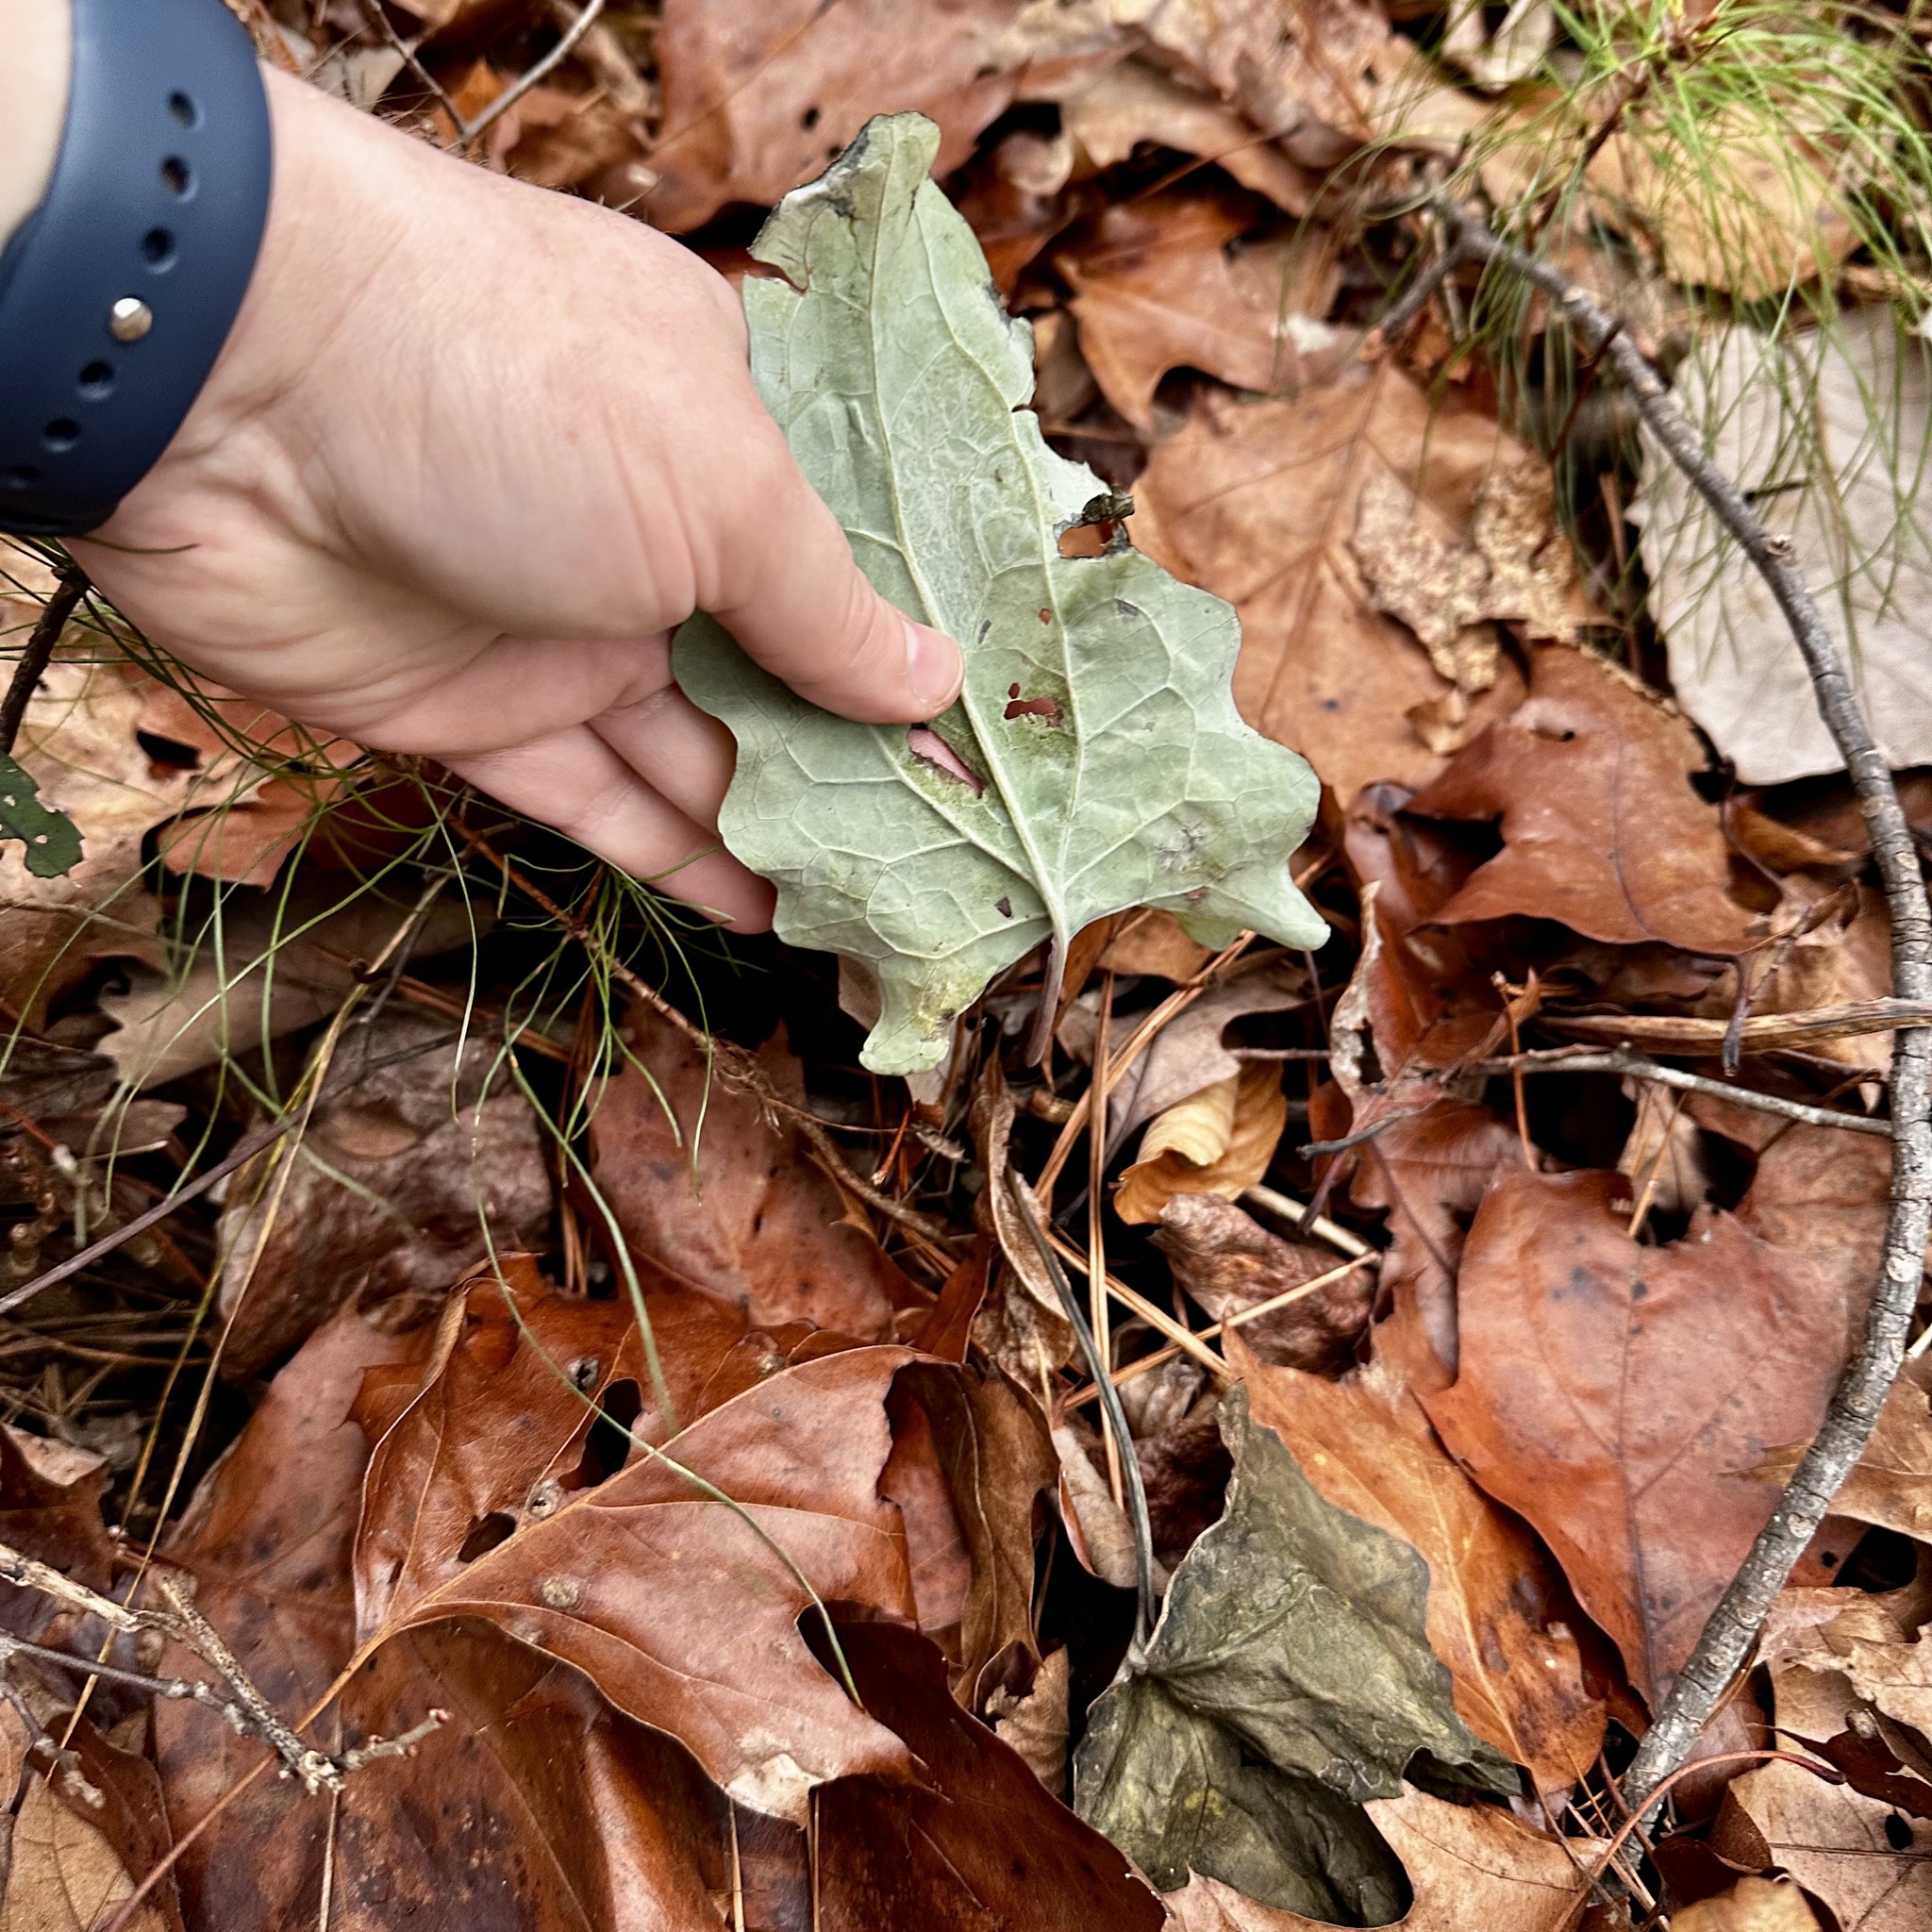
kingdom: Plantae
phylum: Tracheophyta
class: Magnoliopsida
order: Asterales
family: Asteraceae
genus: Arnoglossum
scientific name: Arnoglossum atriplicifolium
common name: Pale indian-plantain
